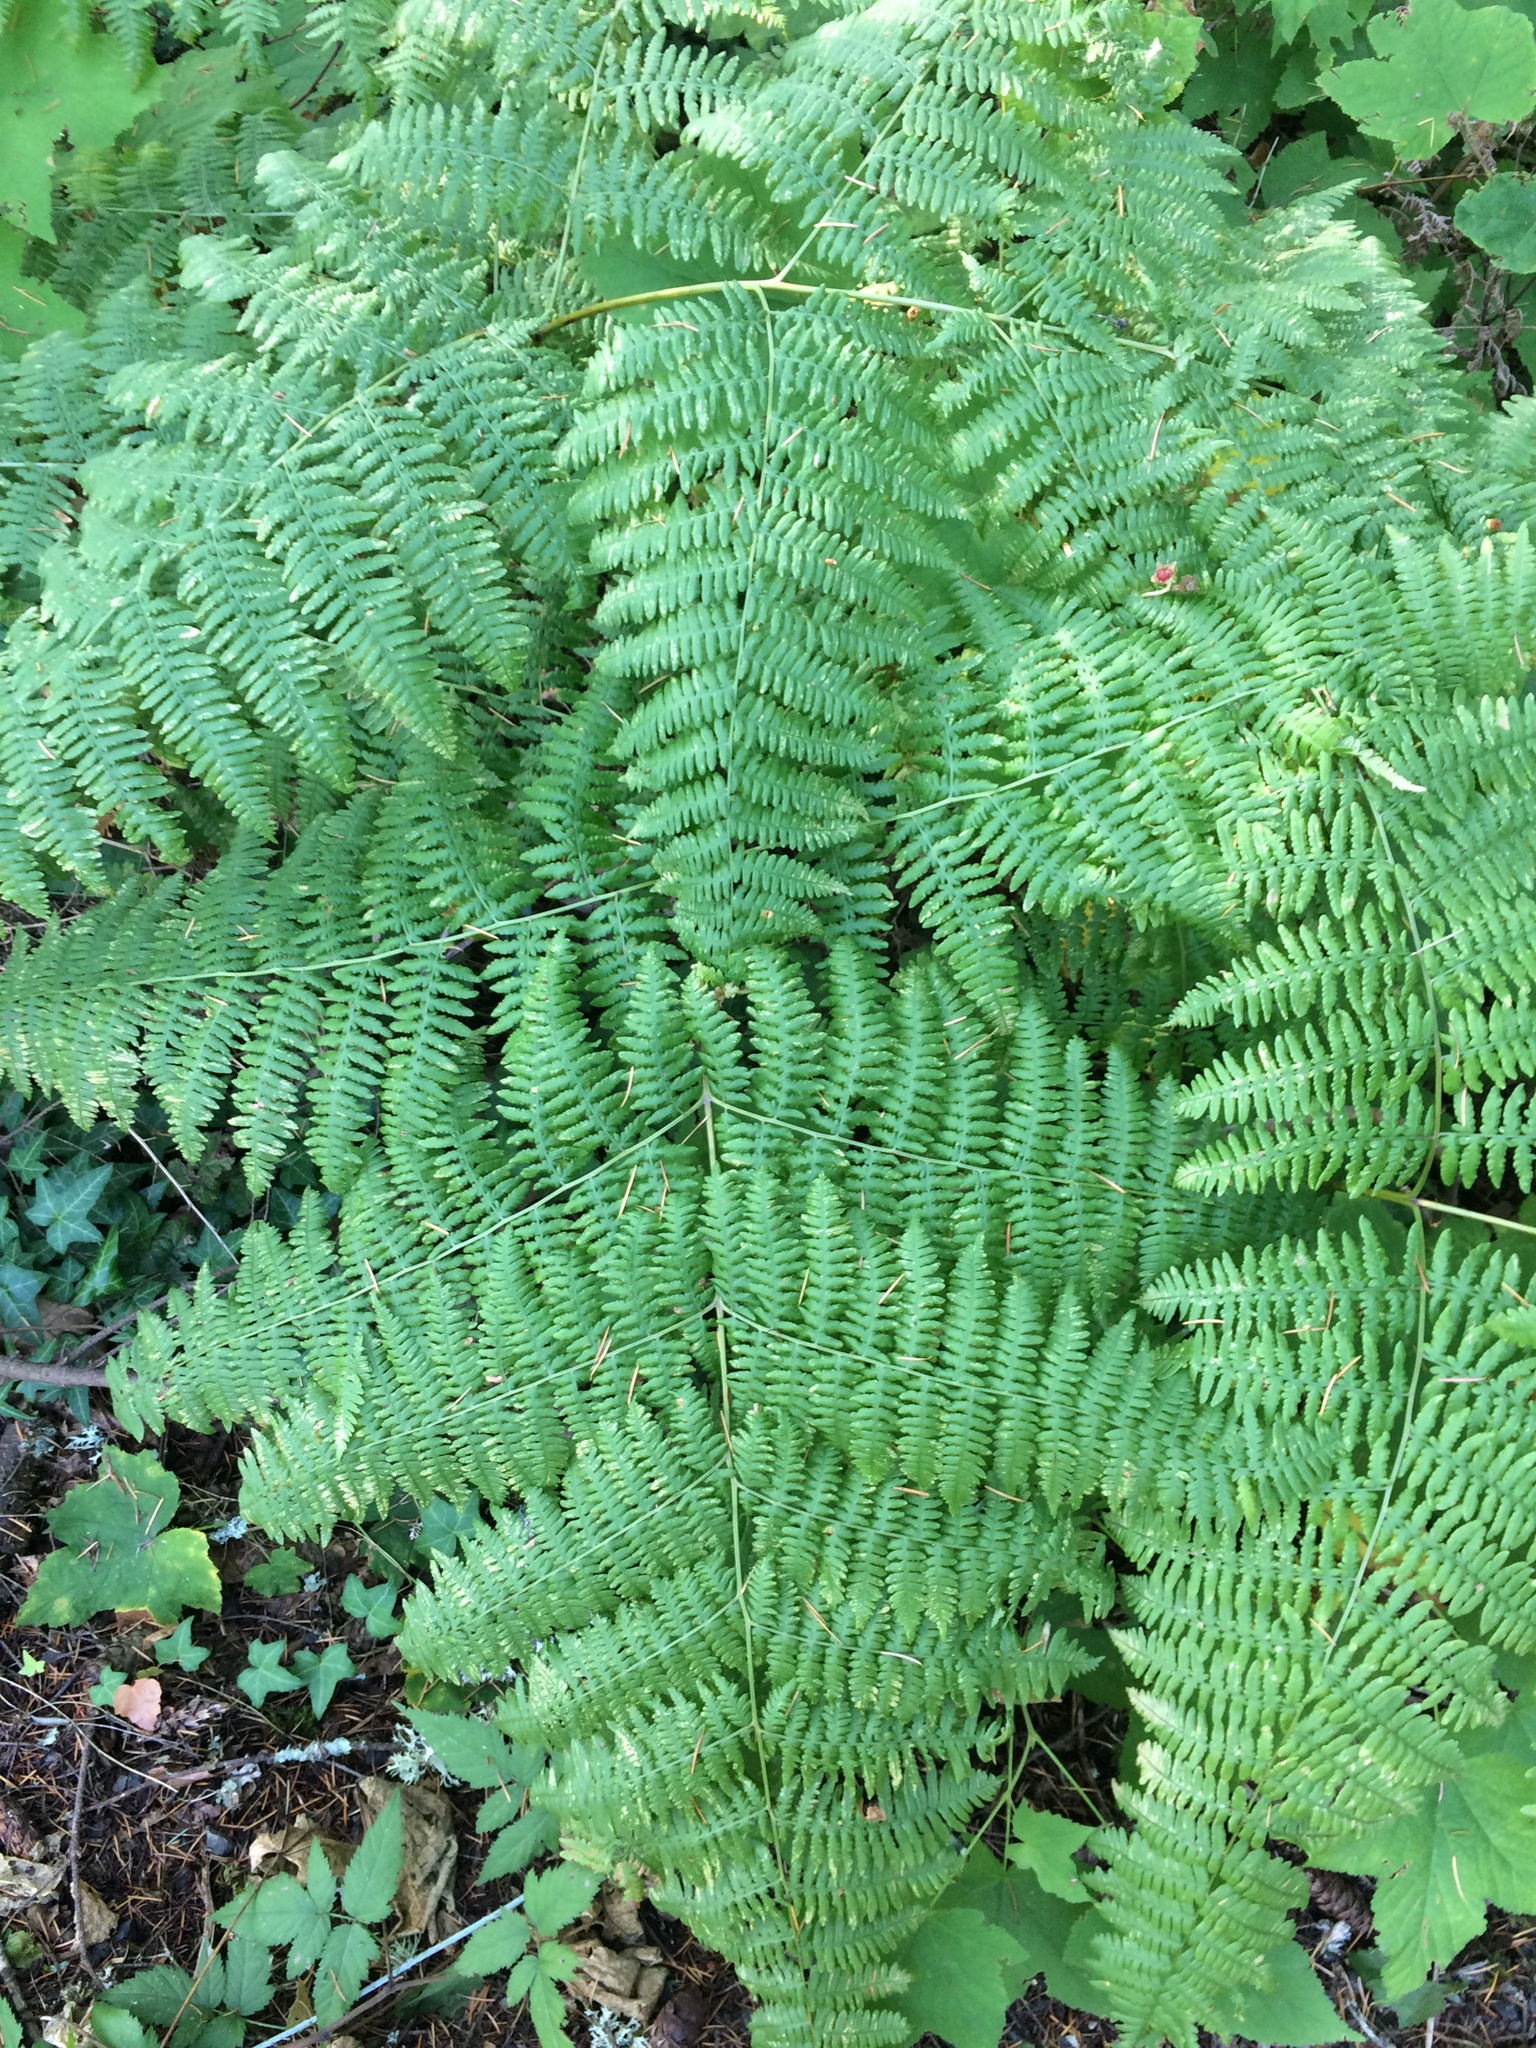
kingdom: Plantae
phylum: Tracheophyta
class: Polypodiopsida
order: Polypodiales
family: Dennstaedtiaceae
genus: Pteridium
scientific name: Pteridium aquilinum
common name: Bracken
